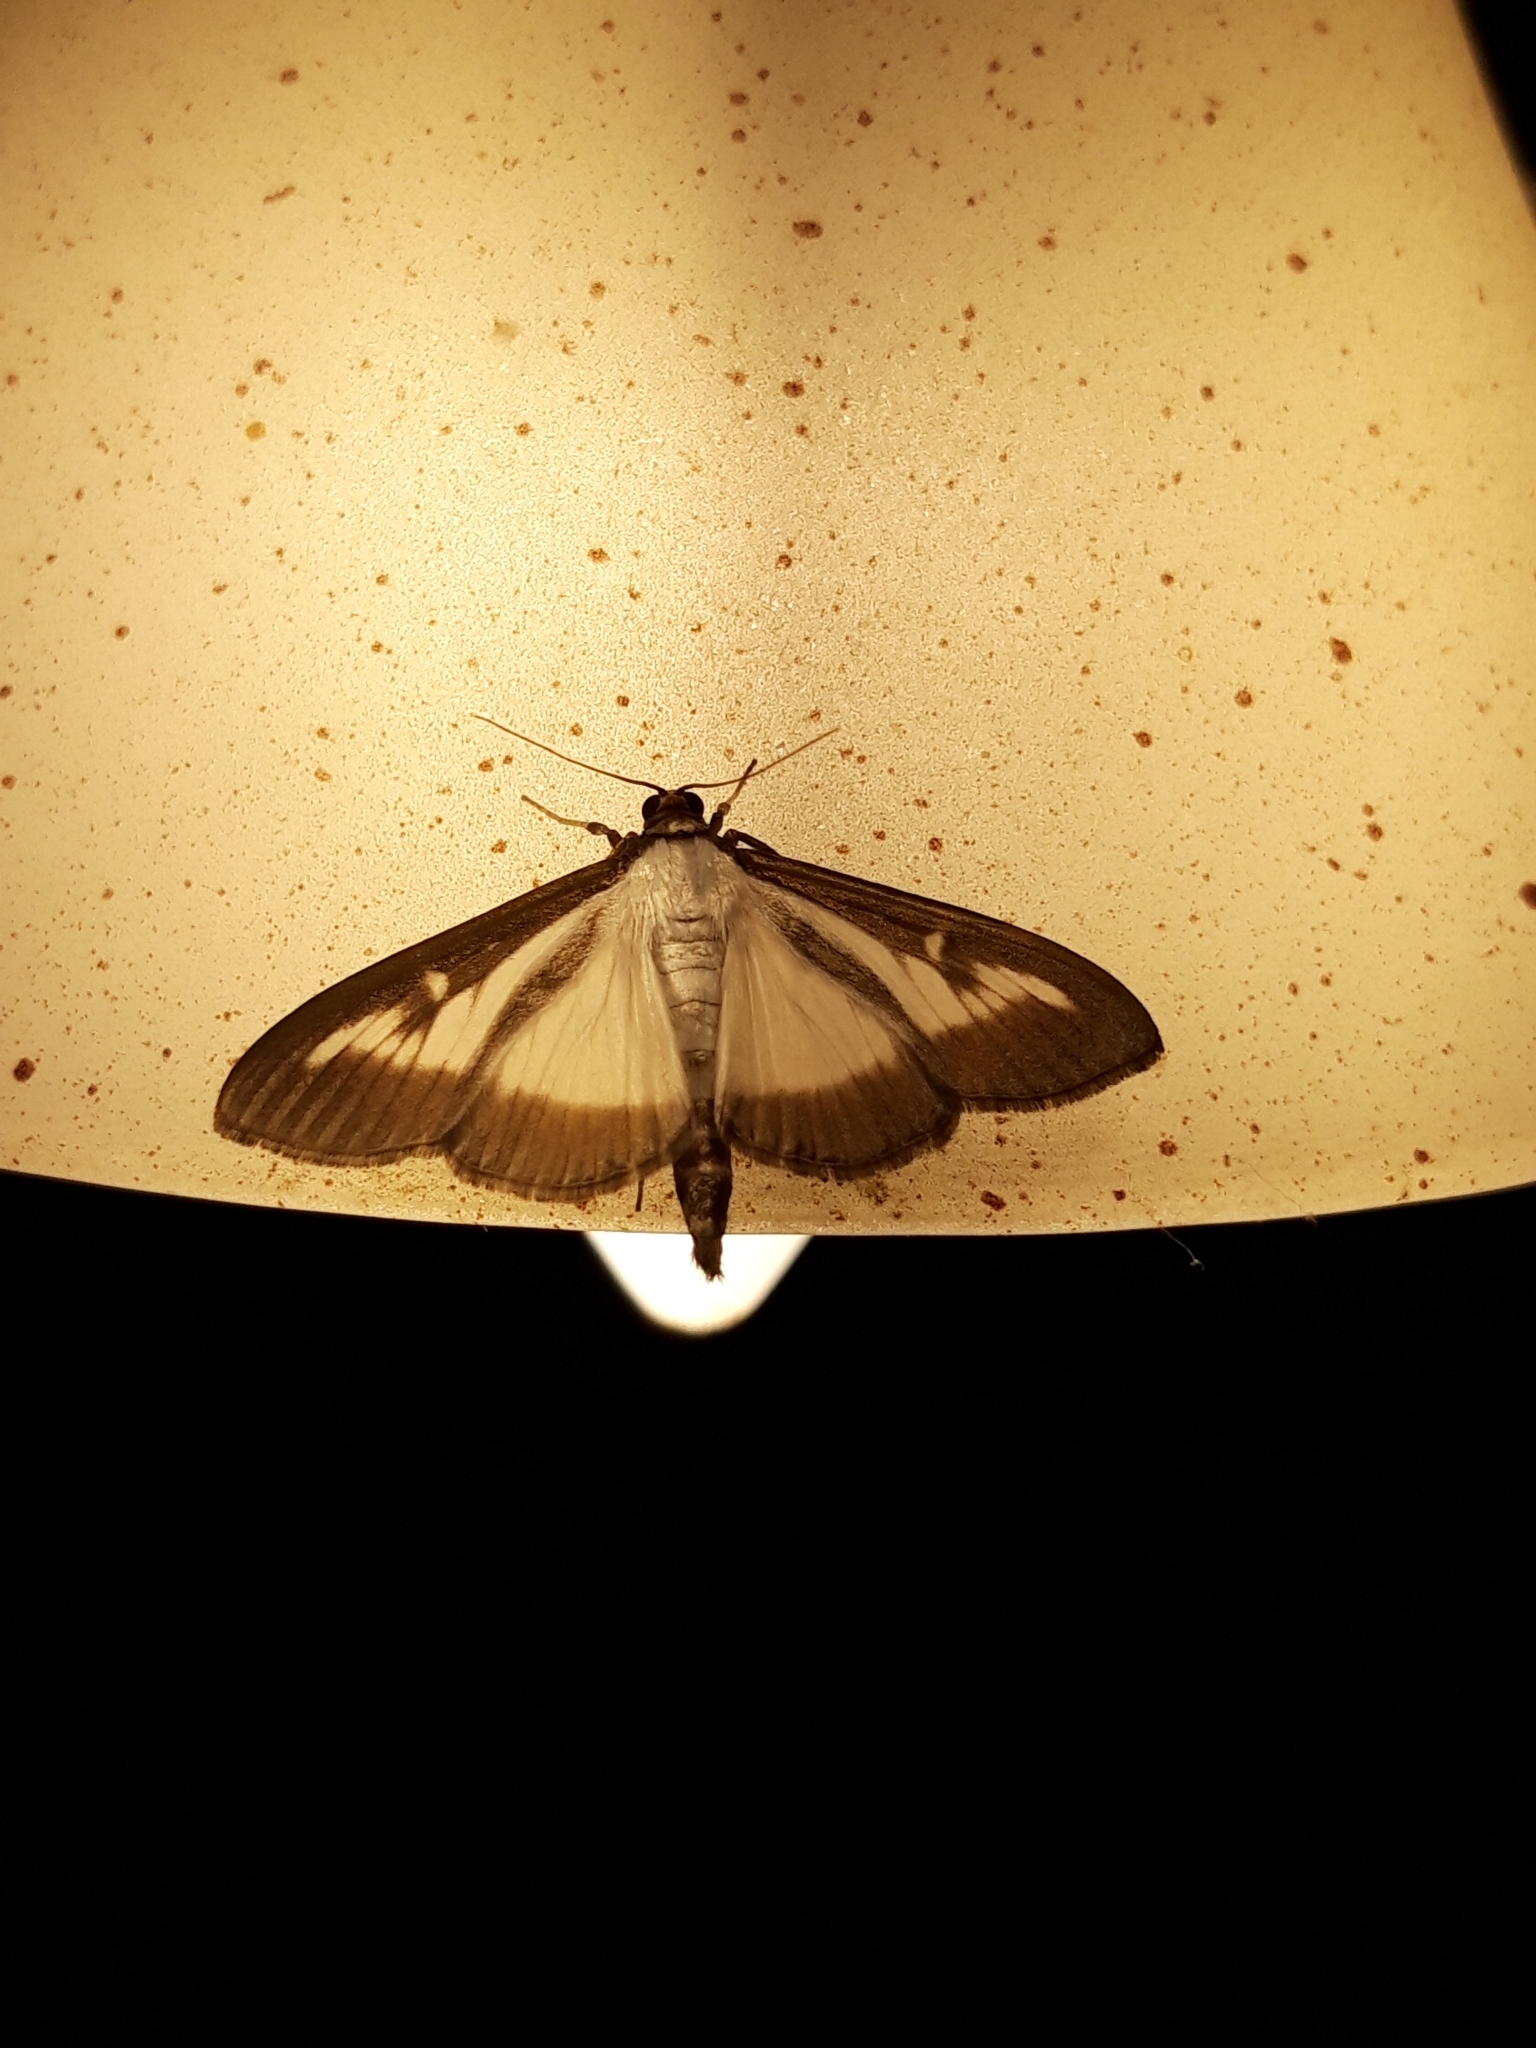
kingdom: Animalia
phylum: Arthropoda
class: Insecta
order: Lepidoptera
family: Crambidae
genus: Cydalima
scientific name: Cydalima perspectalis
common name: Box tree moth
